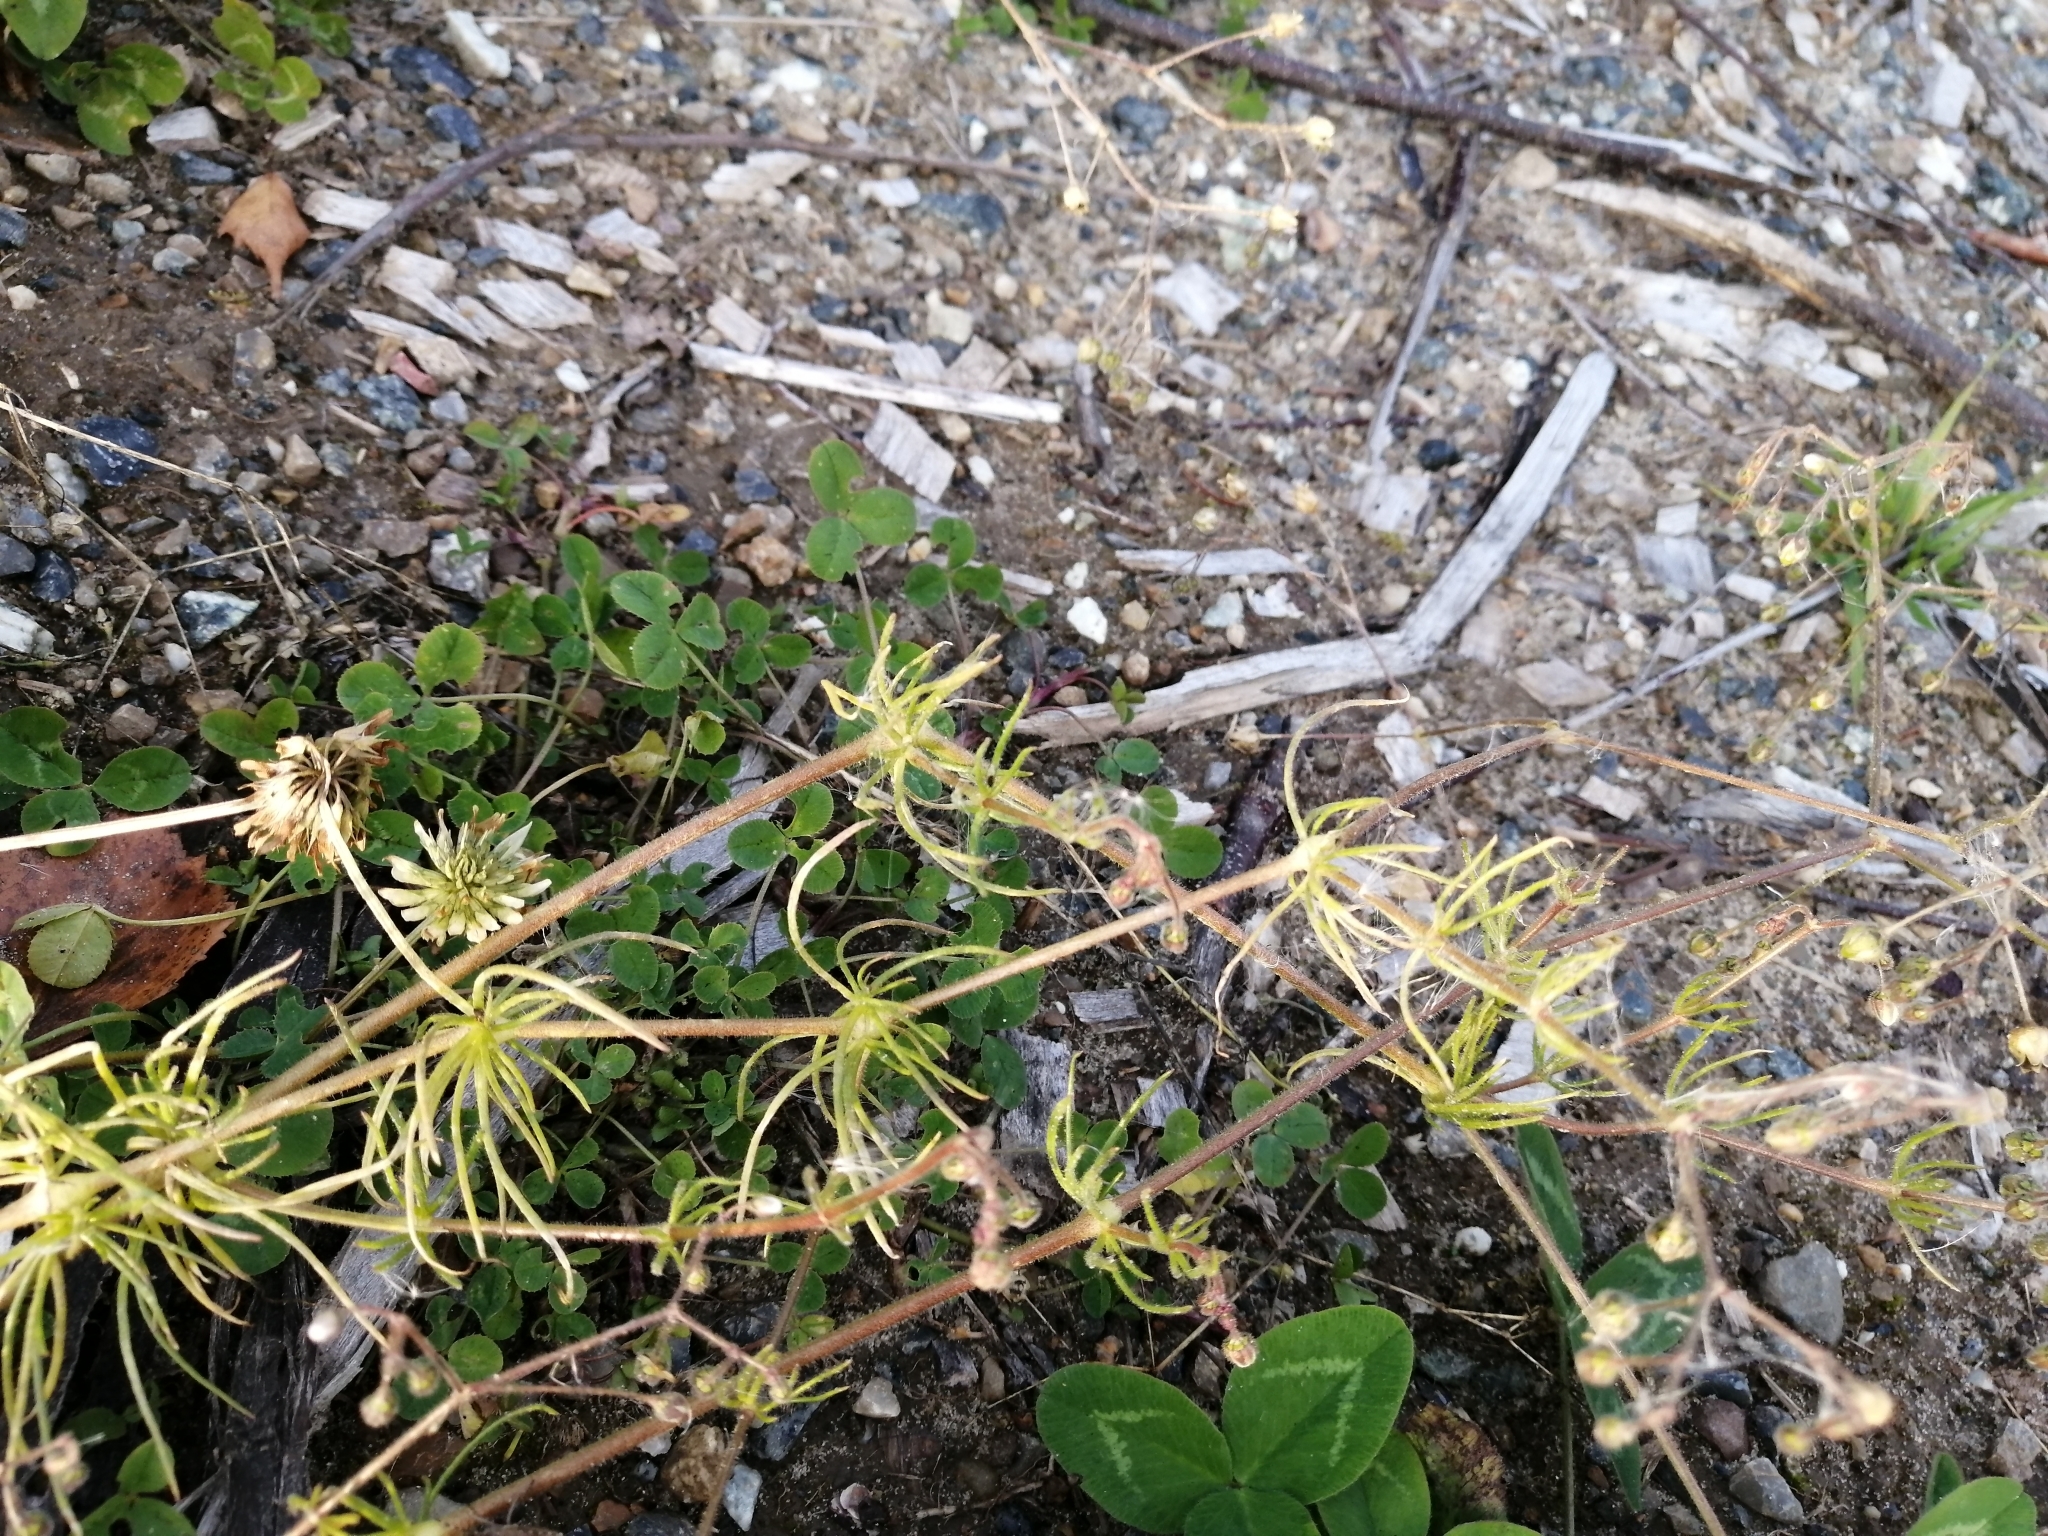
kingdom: Plantae
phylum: Tracheophyta
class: Magnoliopsida
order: Caryophyllales
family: Caryophyllaceae
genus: Spergula
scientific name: Spergula arvensis
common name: Corn spurrey
